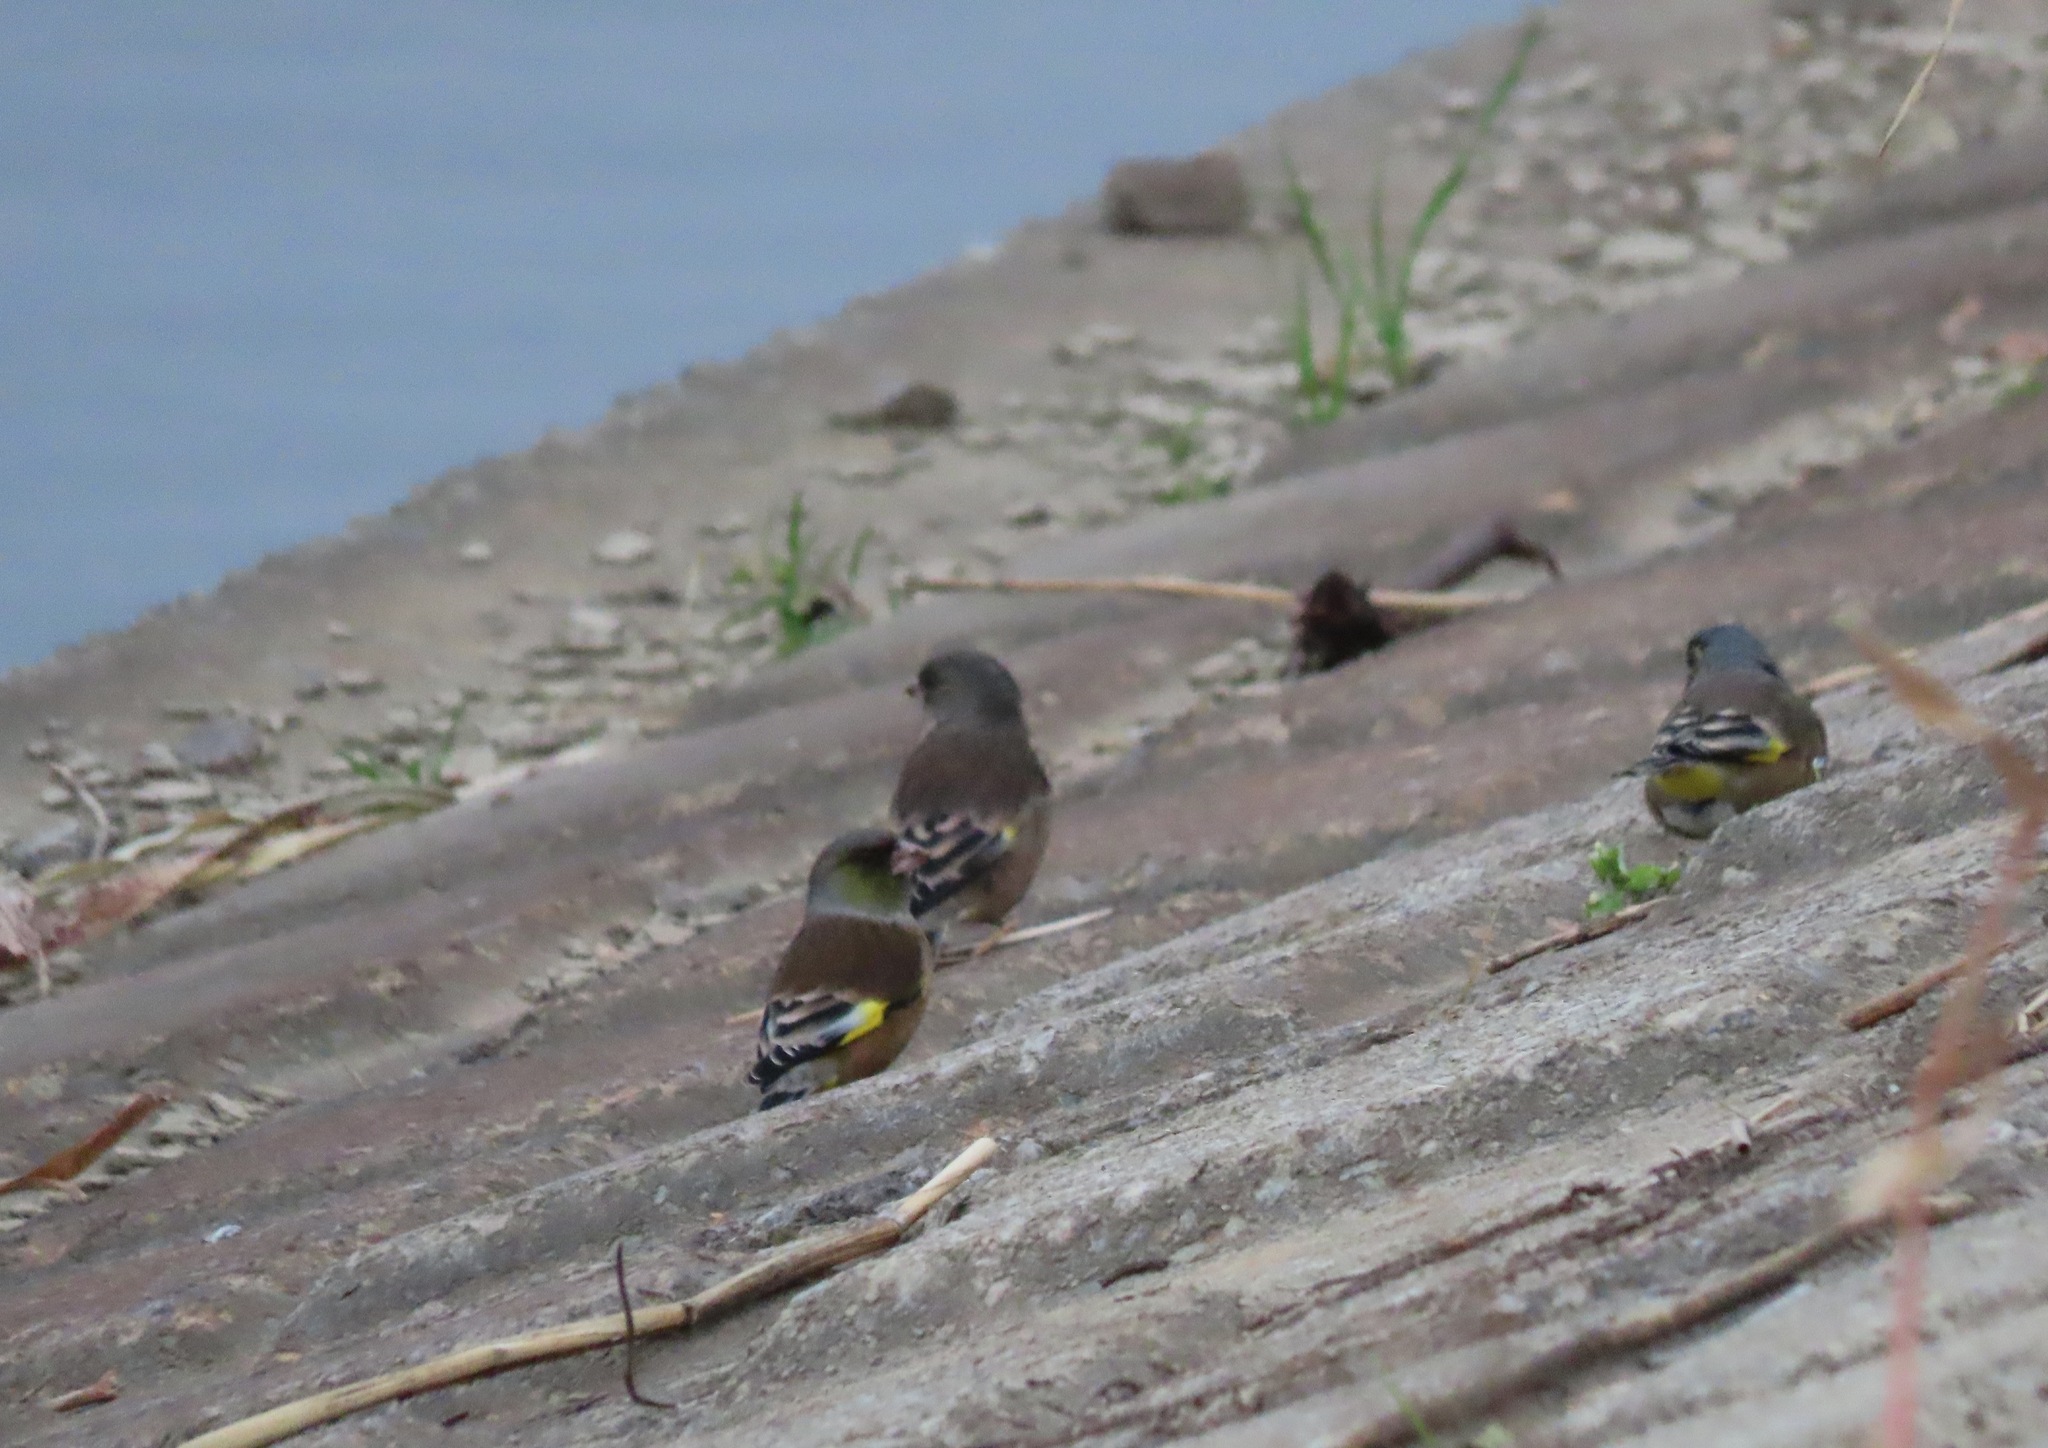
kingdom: Plantae
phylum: Tracheophyta
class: Liliopsida
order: Poales
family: Poaceae
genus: Chloris
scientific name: Chloris sinica
